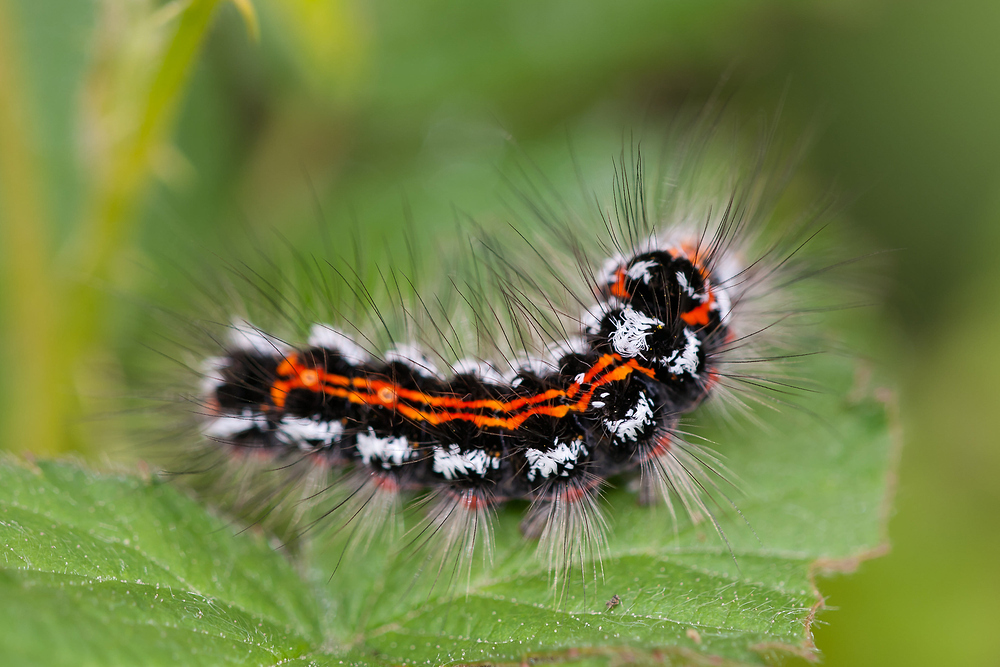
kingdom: Animalia
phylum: Arthropoda
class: Insecta
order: Lepidoptera
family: Erebidae
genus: Sphrageidus
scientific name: Sphrageidus similis
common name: Yellow-tail
